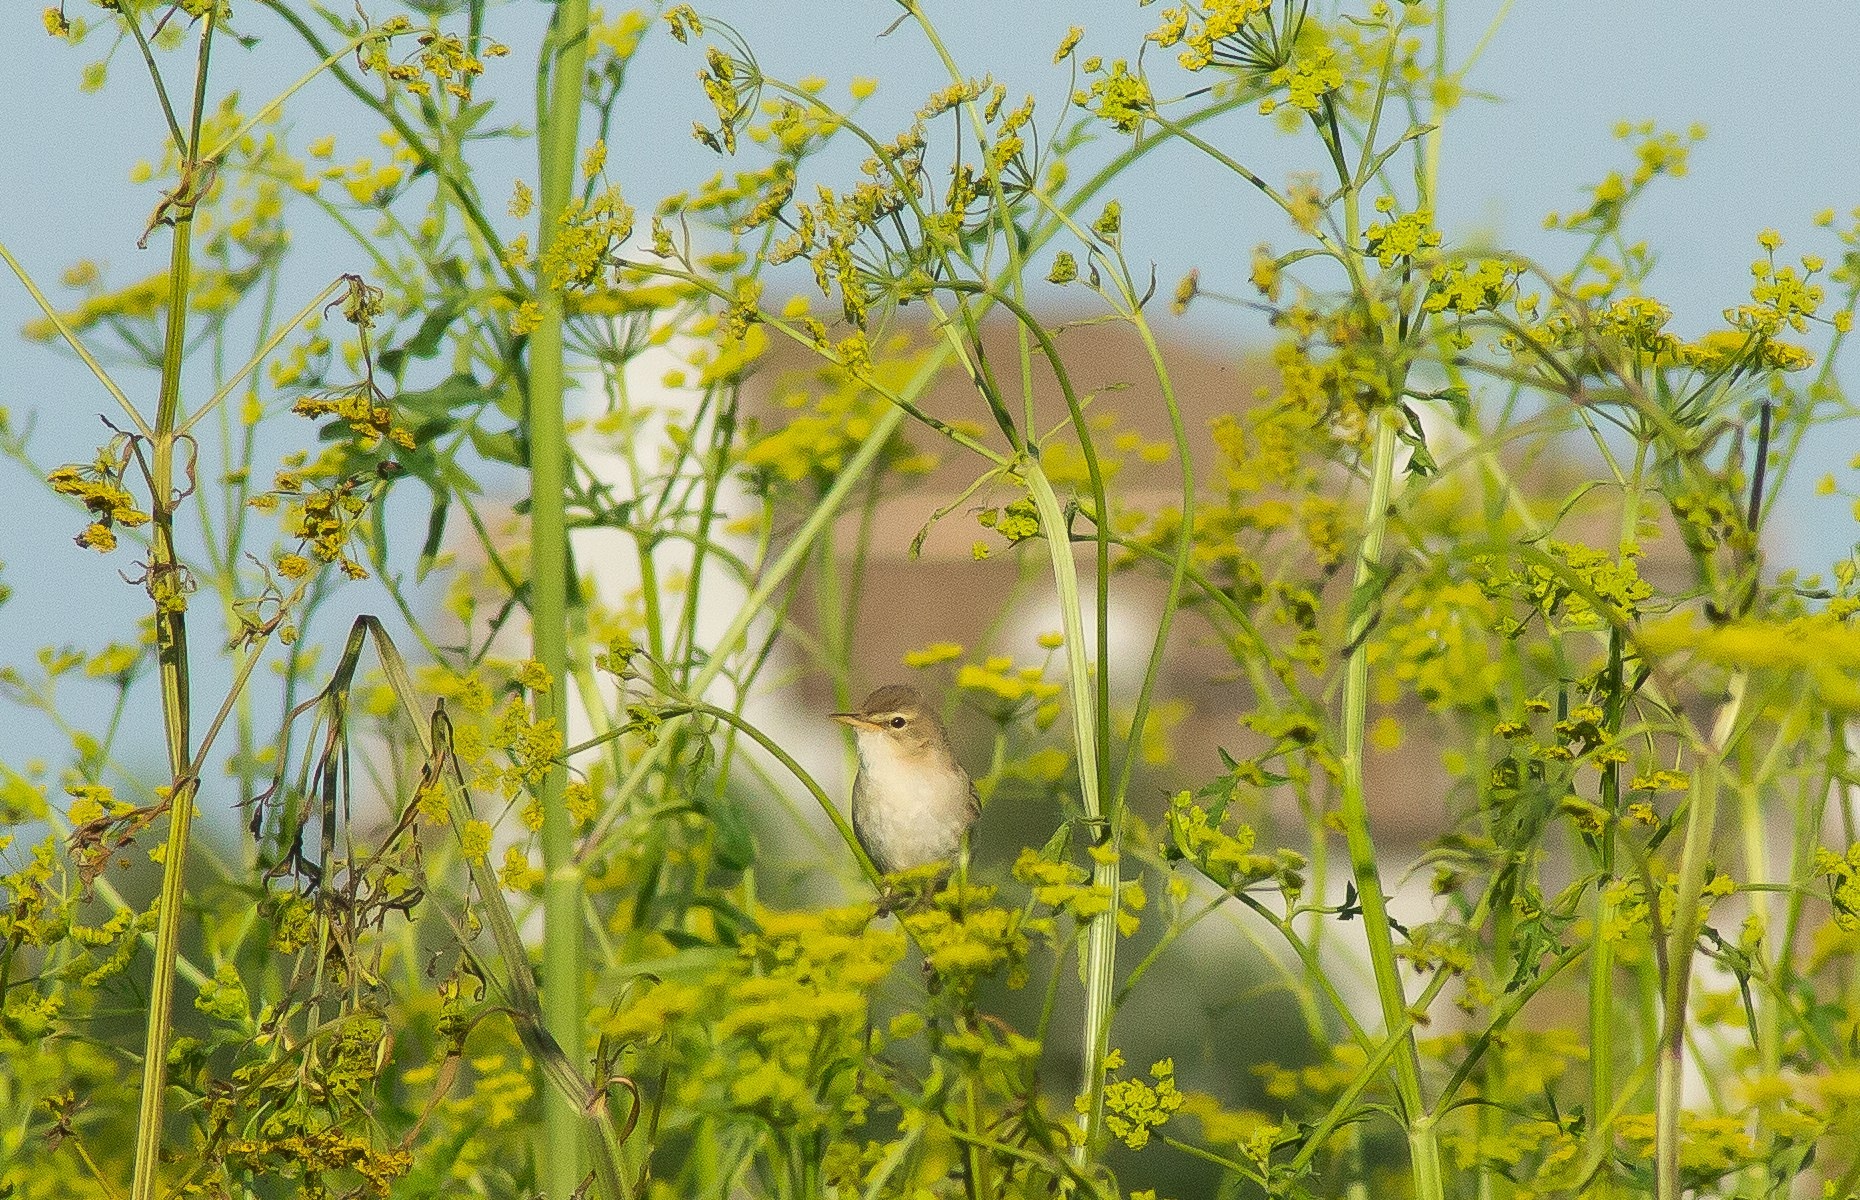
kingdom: Animalia
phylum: Chordata
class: Aves
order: Passeriformes
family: Acrocephalidae
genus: Iduna
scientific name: Iduna caligata
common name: Booted warbler
